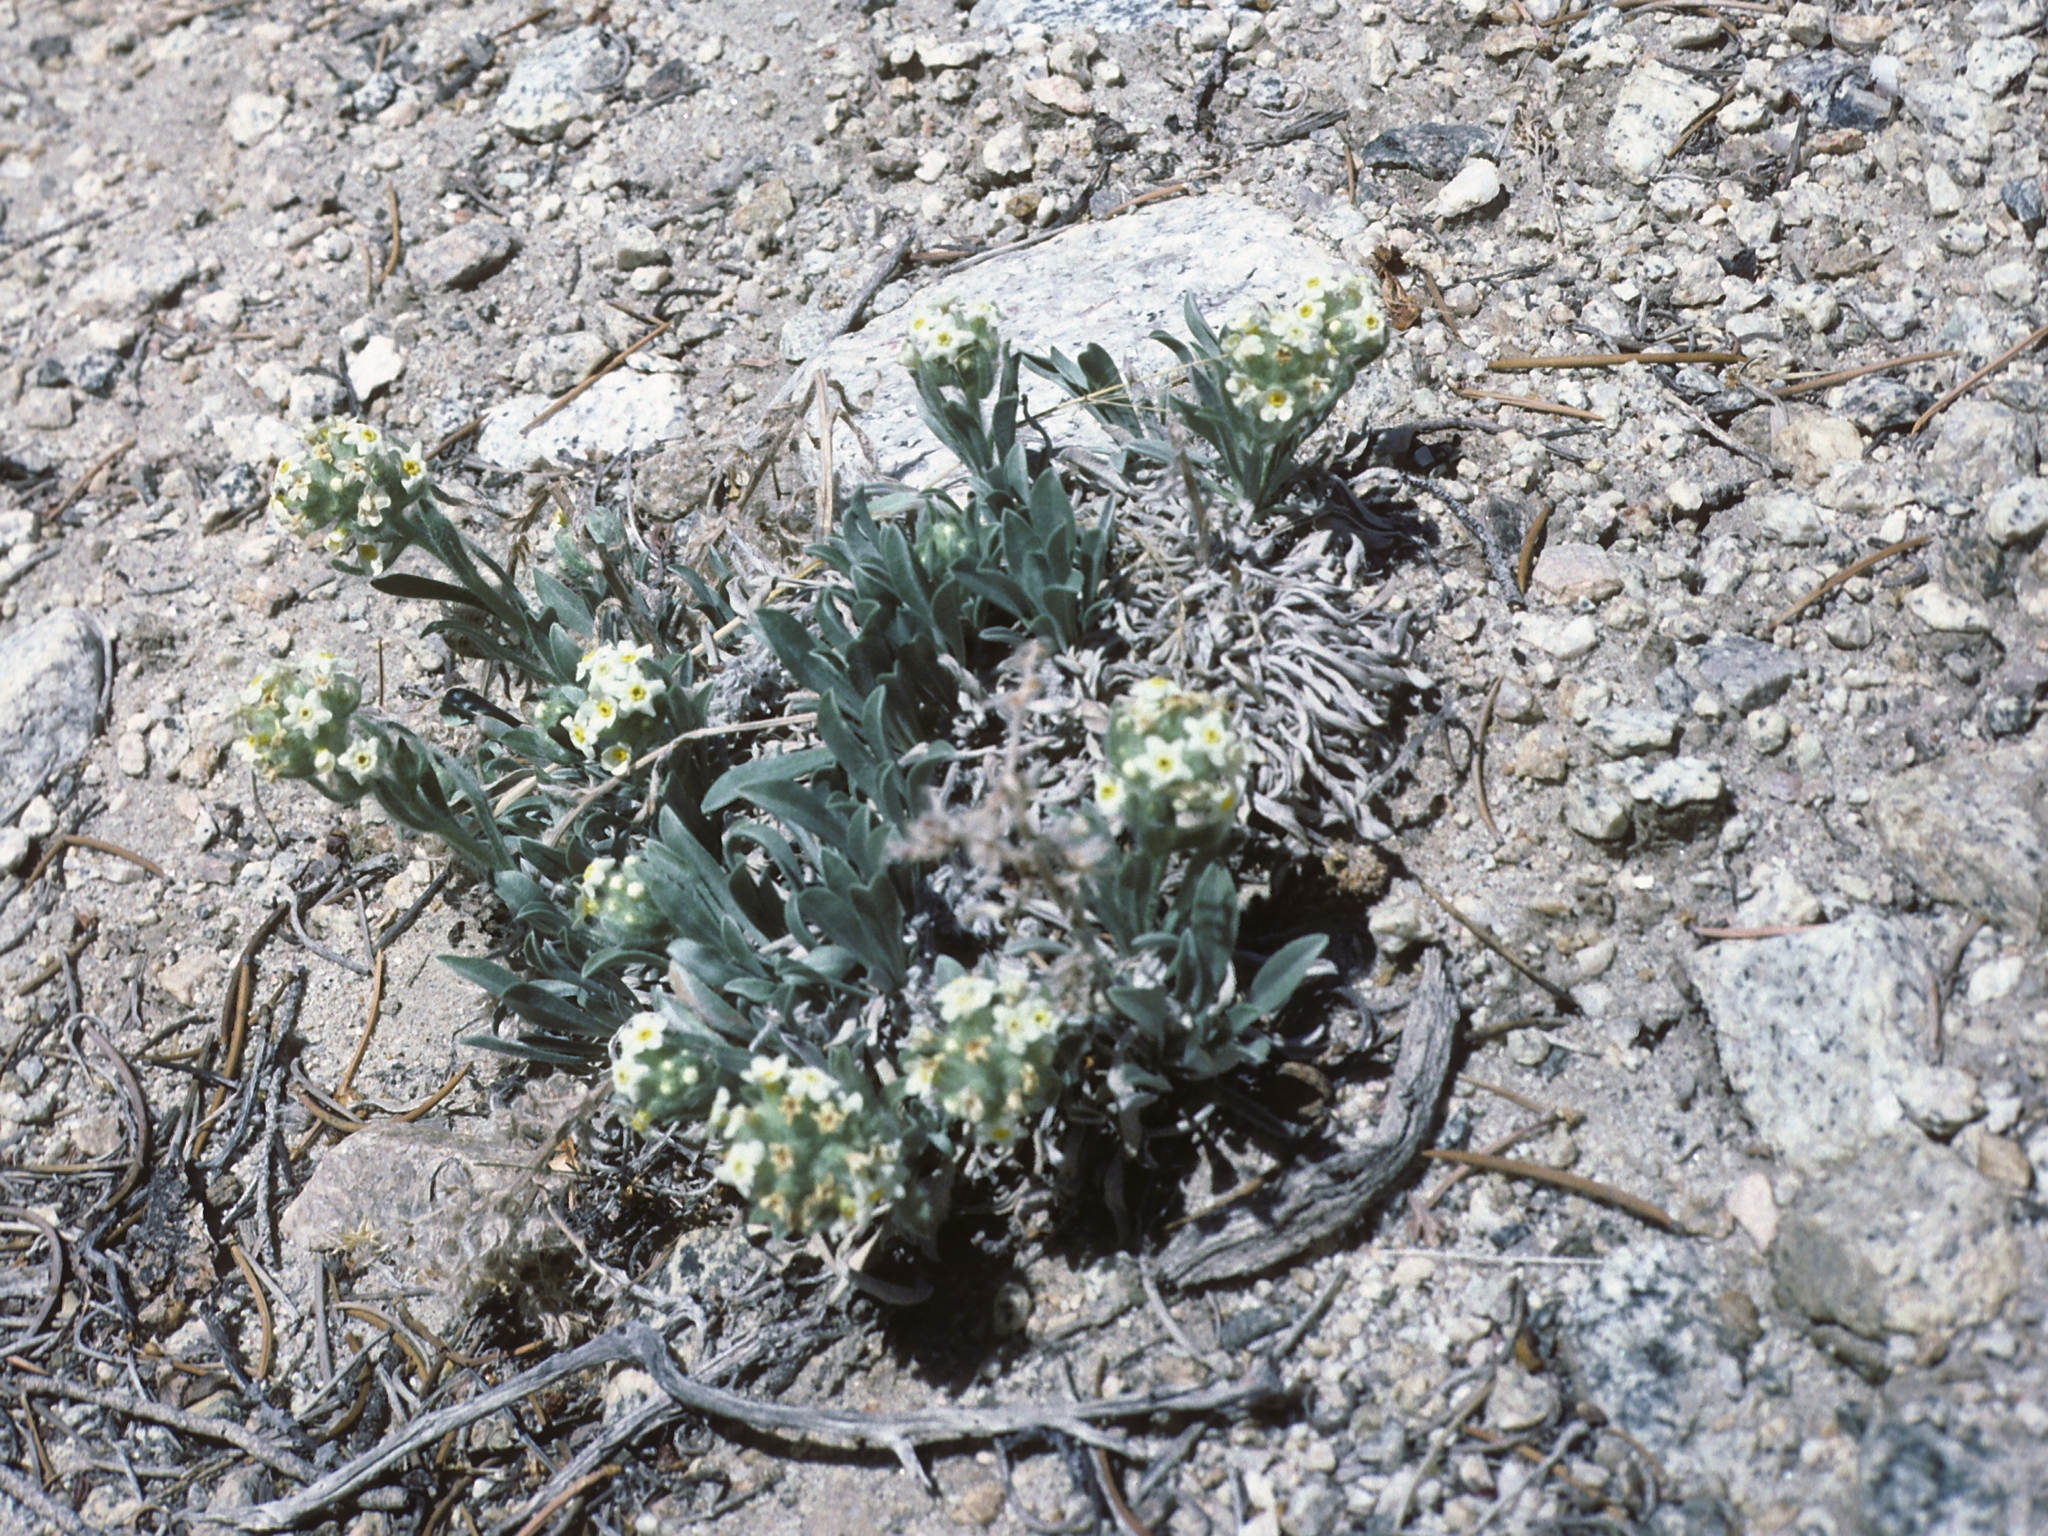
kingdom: Plantae
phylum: Tracheophyta
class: Magnoliopsida
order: Boraginales
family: Boraginaceae
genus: Oreocarya
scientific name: Oreocarya flavoculata
